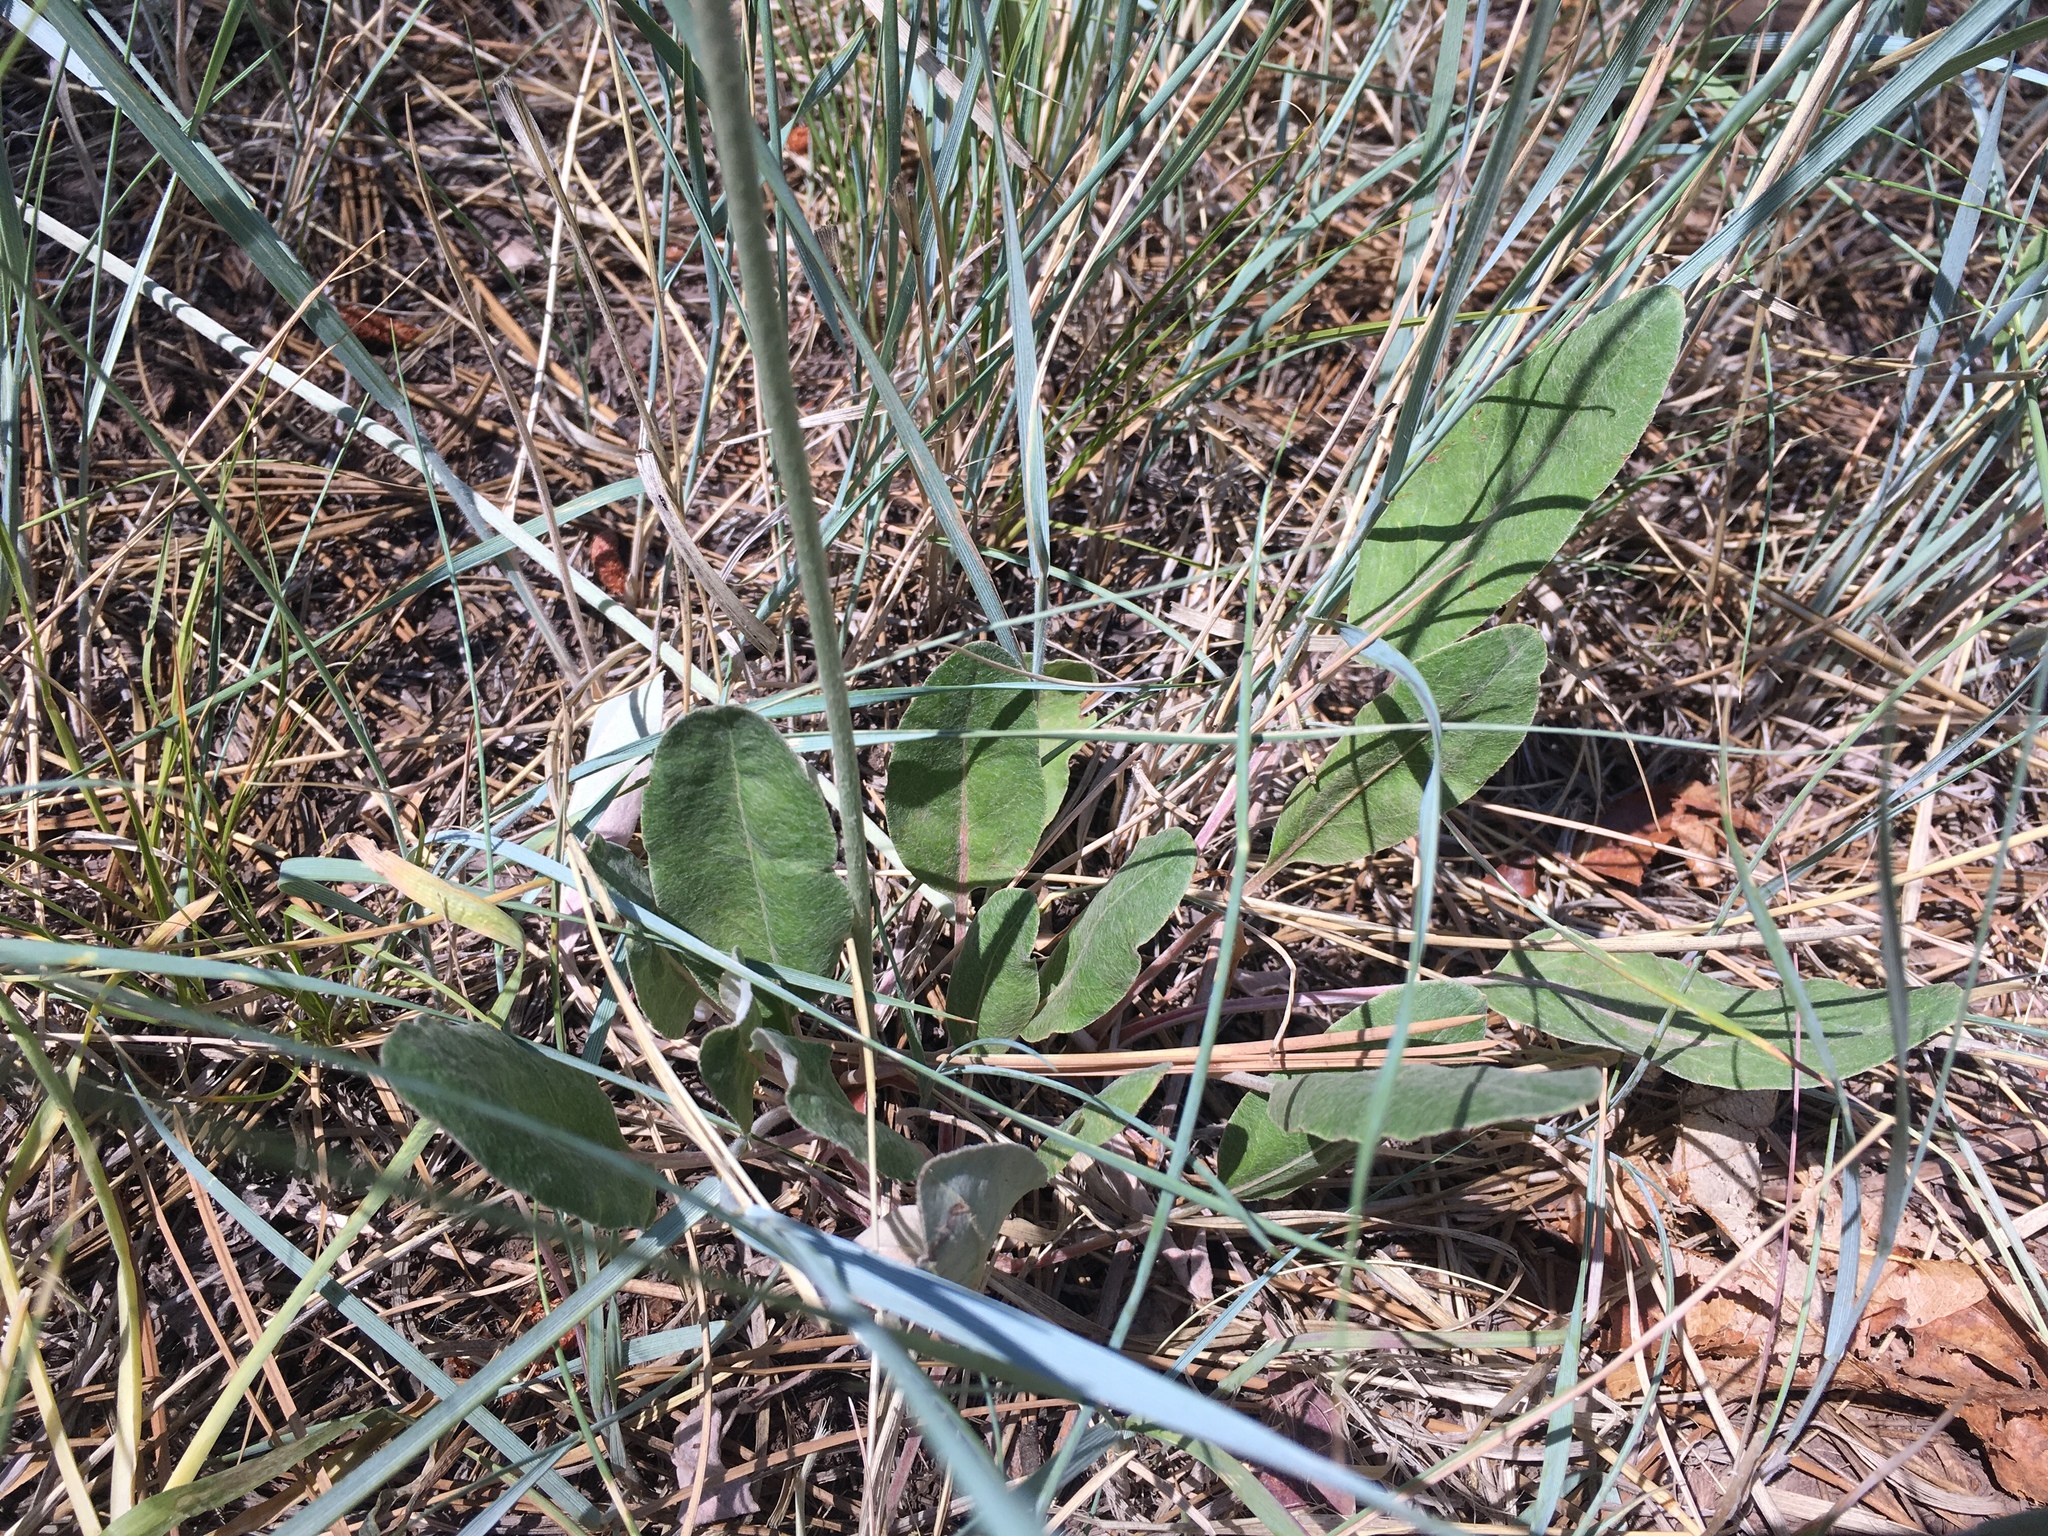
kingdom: Plantae
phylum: Tracheophyta
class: Magnoliopsida
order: Caryophyllales
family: Polygonaceae
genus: Eriogonum
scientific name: Eriogonum racemosum
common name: Redroot wild buckwheat
